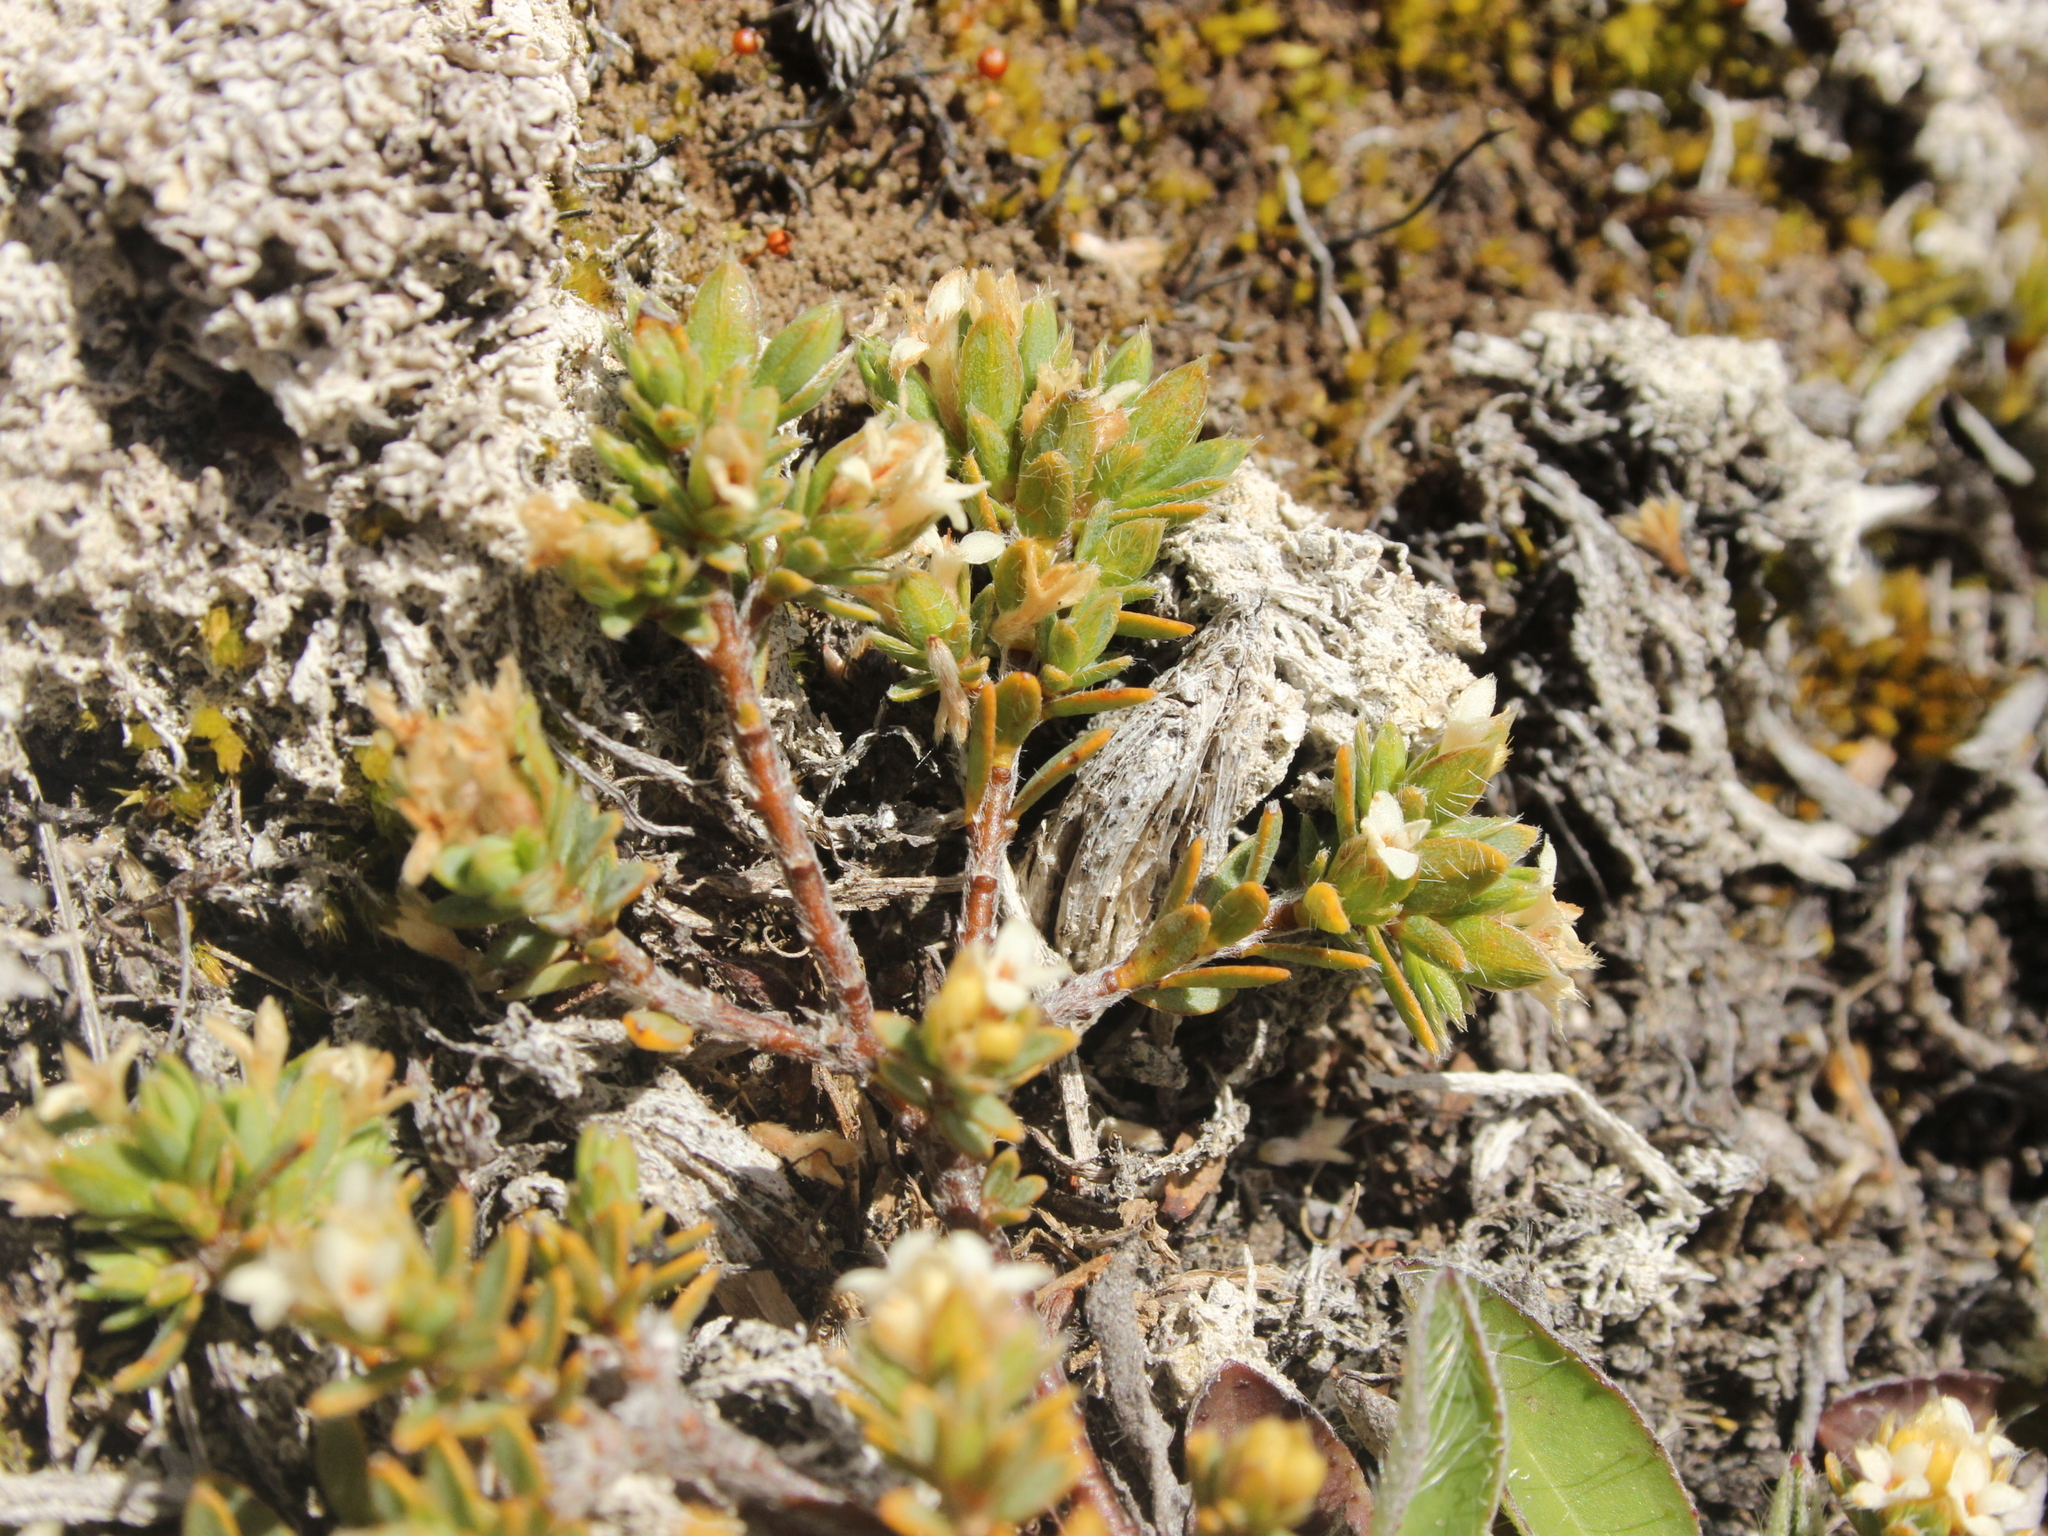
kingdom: Plantae
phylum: Tracheophyta
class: Magnoliopsida
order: Malvales
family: Thymelaeaceae
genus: Pimelea
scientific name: Pimelea oreophila
